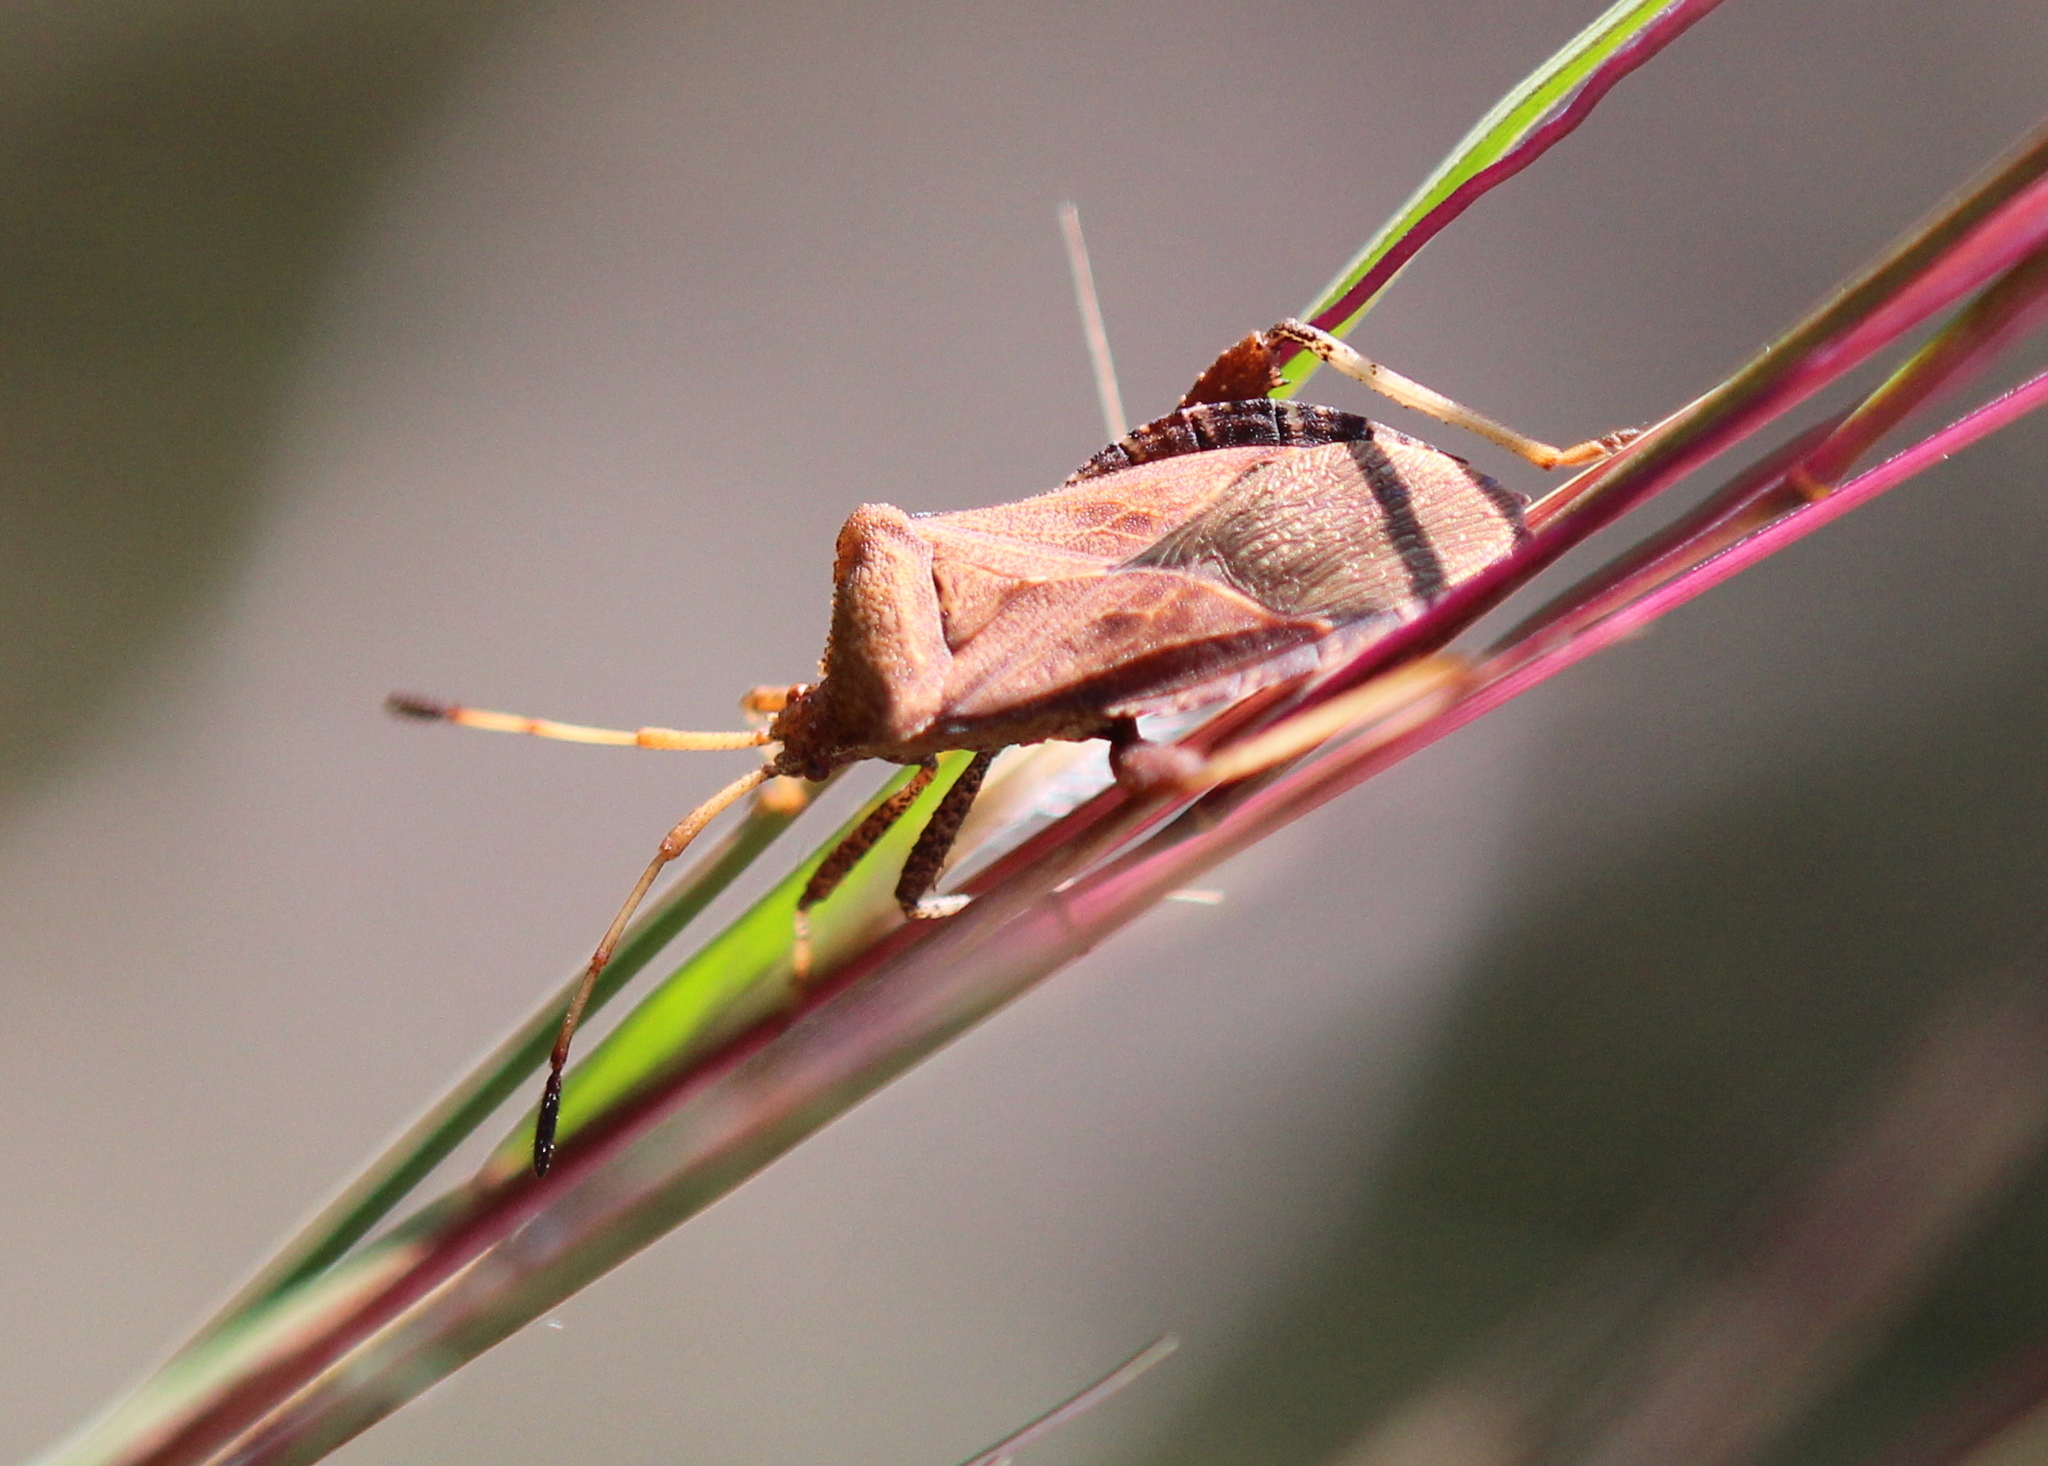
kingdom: Animalia
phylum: Arthropoda
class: Insecta
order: Hemiptera
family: Coreidae
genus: Euthochtha
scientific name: Euthochtha galeator
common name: Helmeted squash bug
